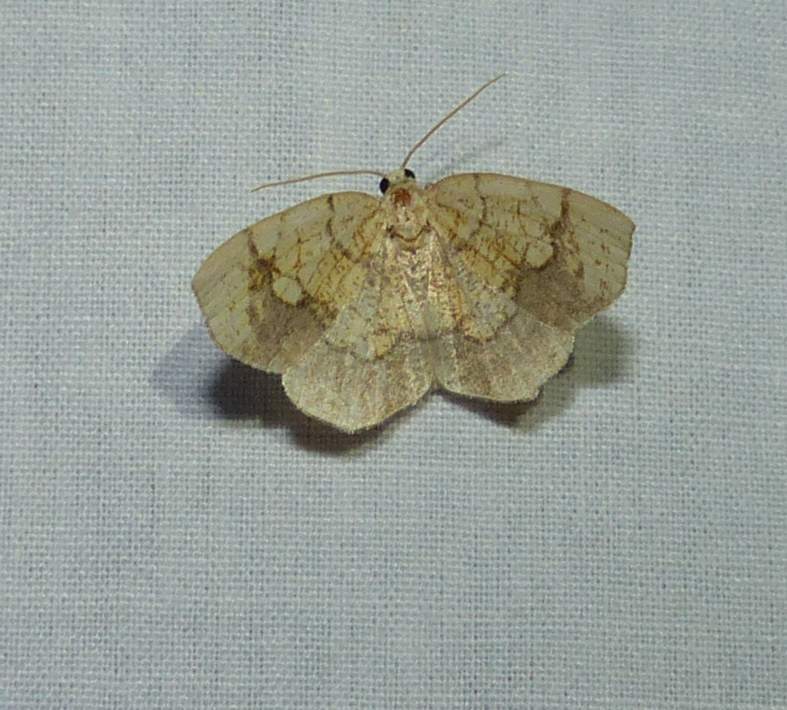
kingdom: Animalia
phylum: Arthropoda
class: Insecta
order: Lepidoptera
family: Geometridae
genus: Nematocampa
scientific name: Nematocampa resistaria
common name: Horned spanworm moth
